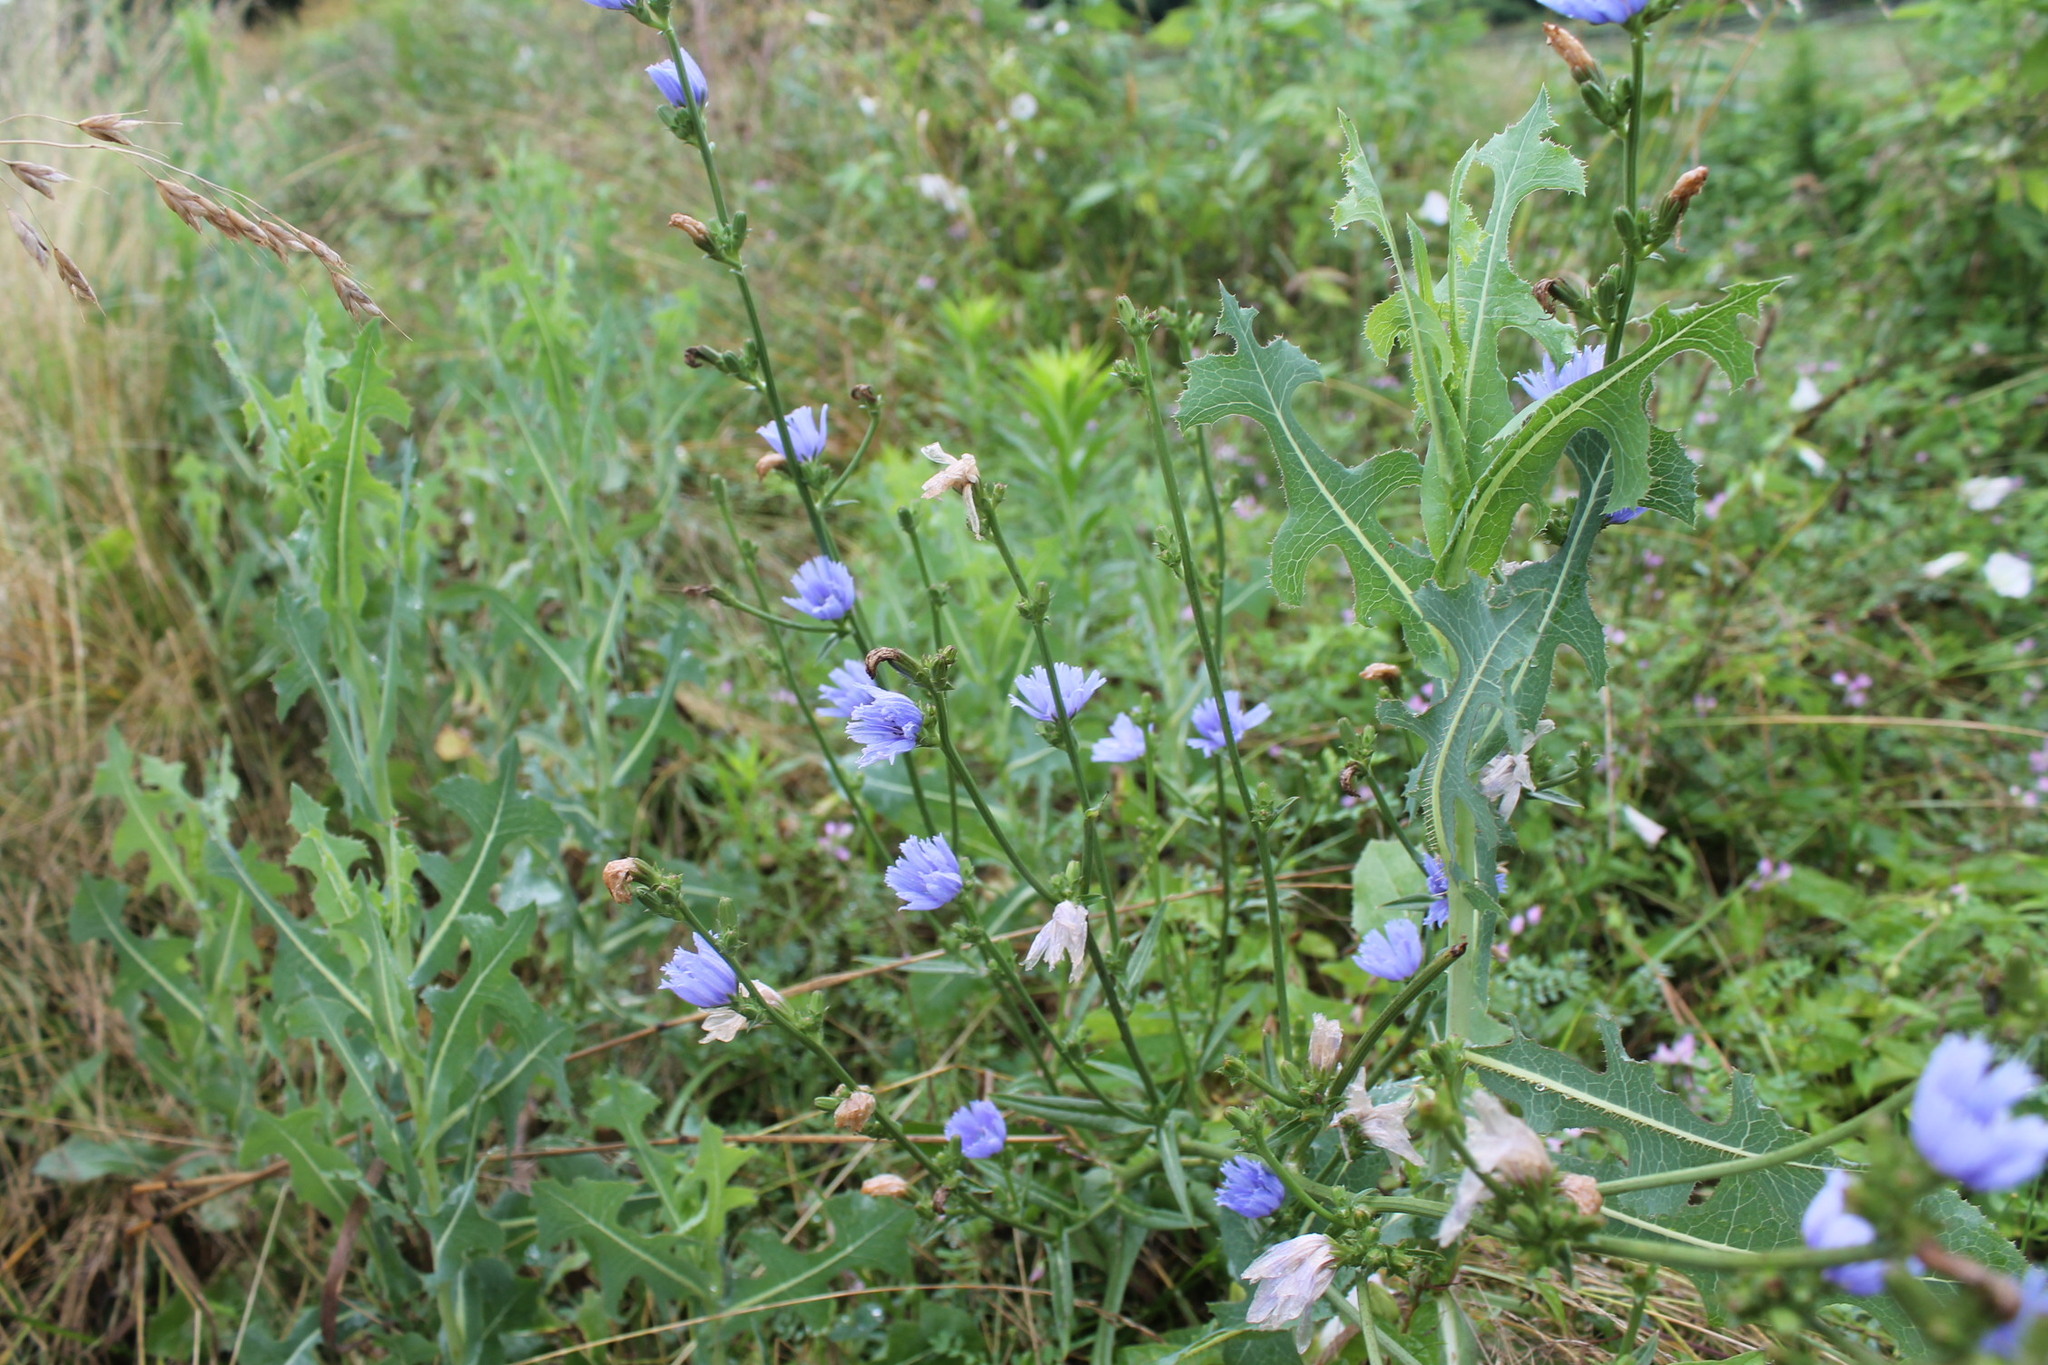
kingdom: Plantae
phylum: Tracheophyta
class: Magnoliopsida
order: Asterales
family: Asteraceae
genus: Cichorium
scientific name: Cichorium intybus
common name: Chicory
